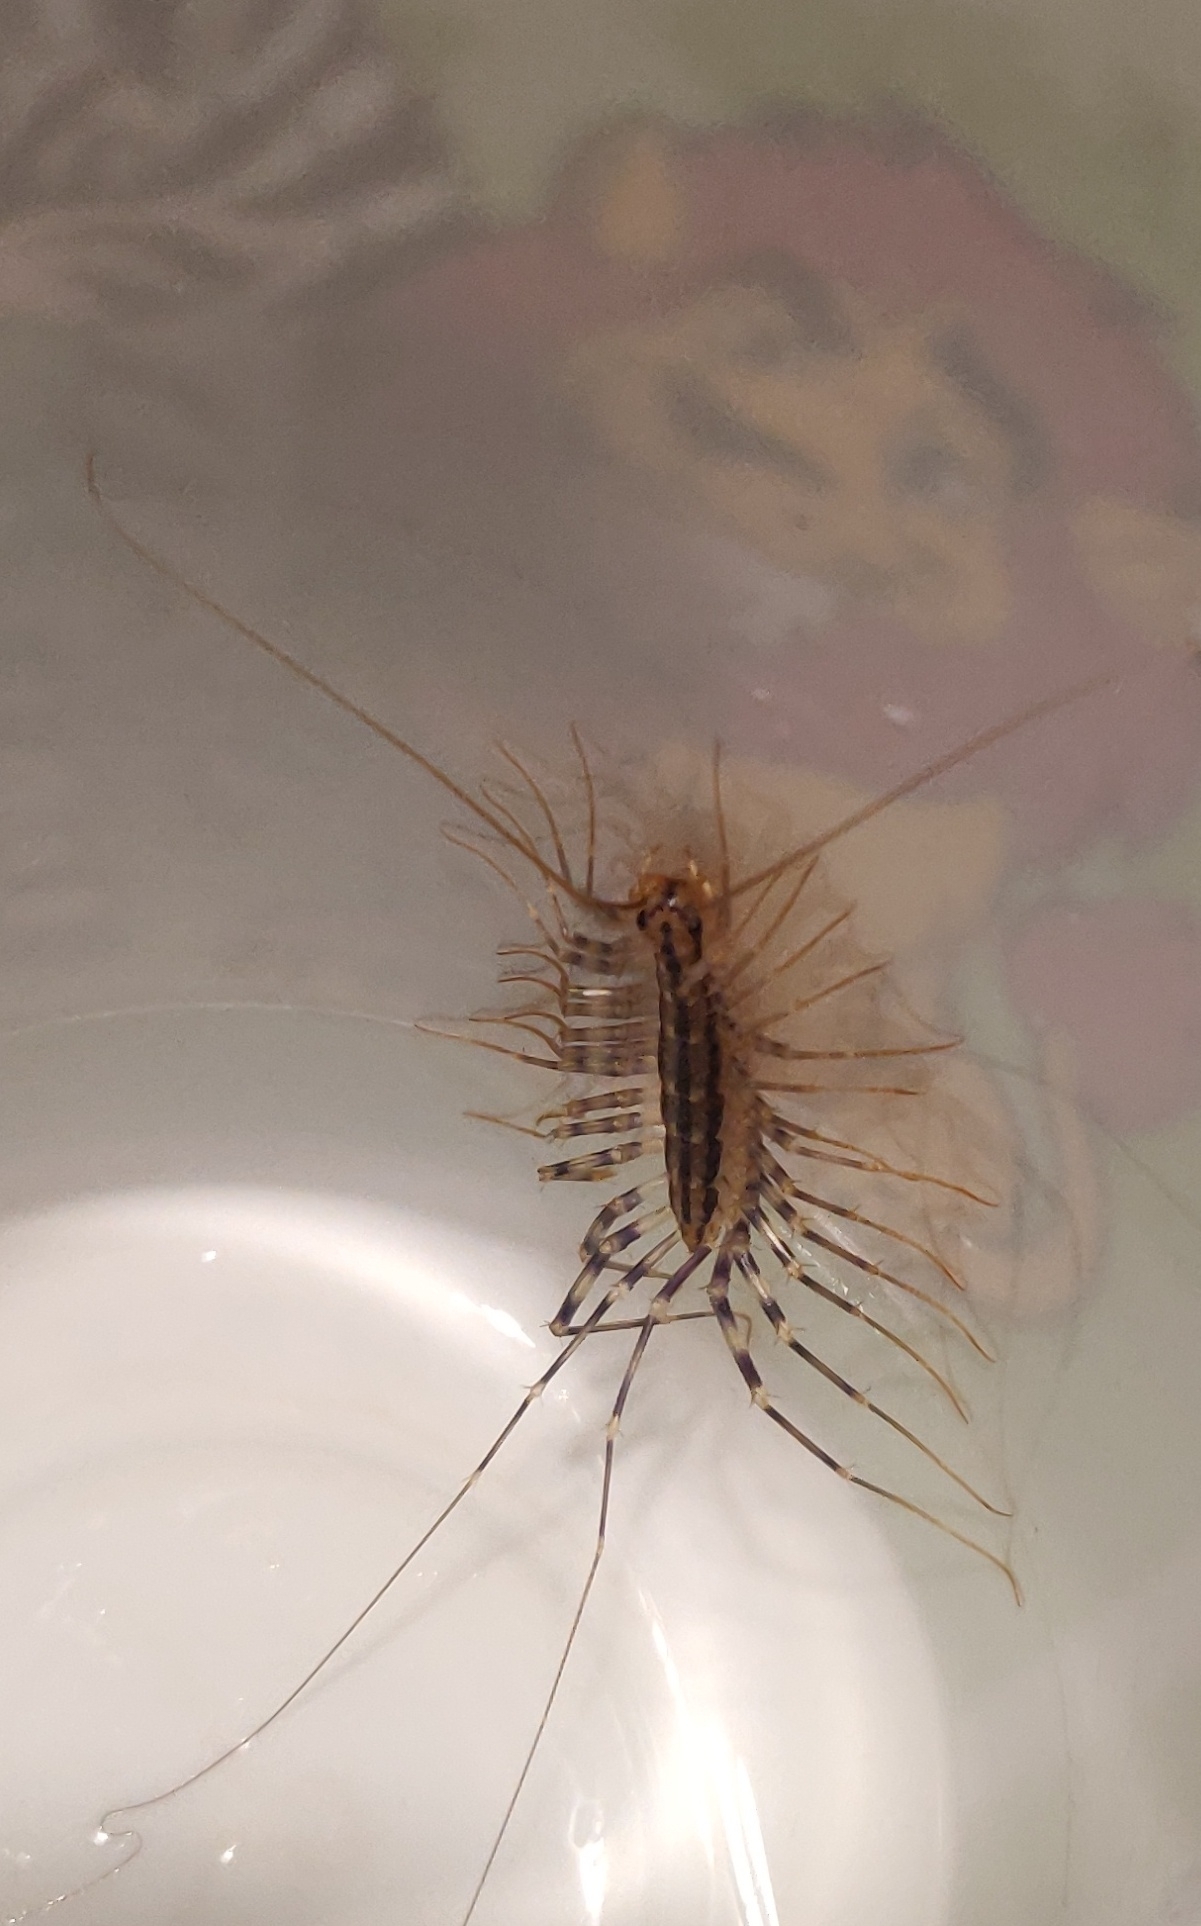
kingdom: Animalia
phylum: Arthropoda
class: Chilopoda
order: Scutigeromorpha
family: Scutigeridae
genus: Scutigera
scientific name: Scutigera coleoptrata
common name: House centipede
